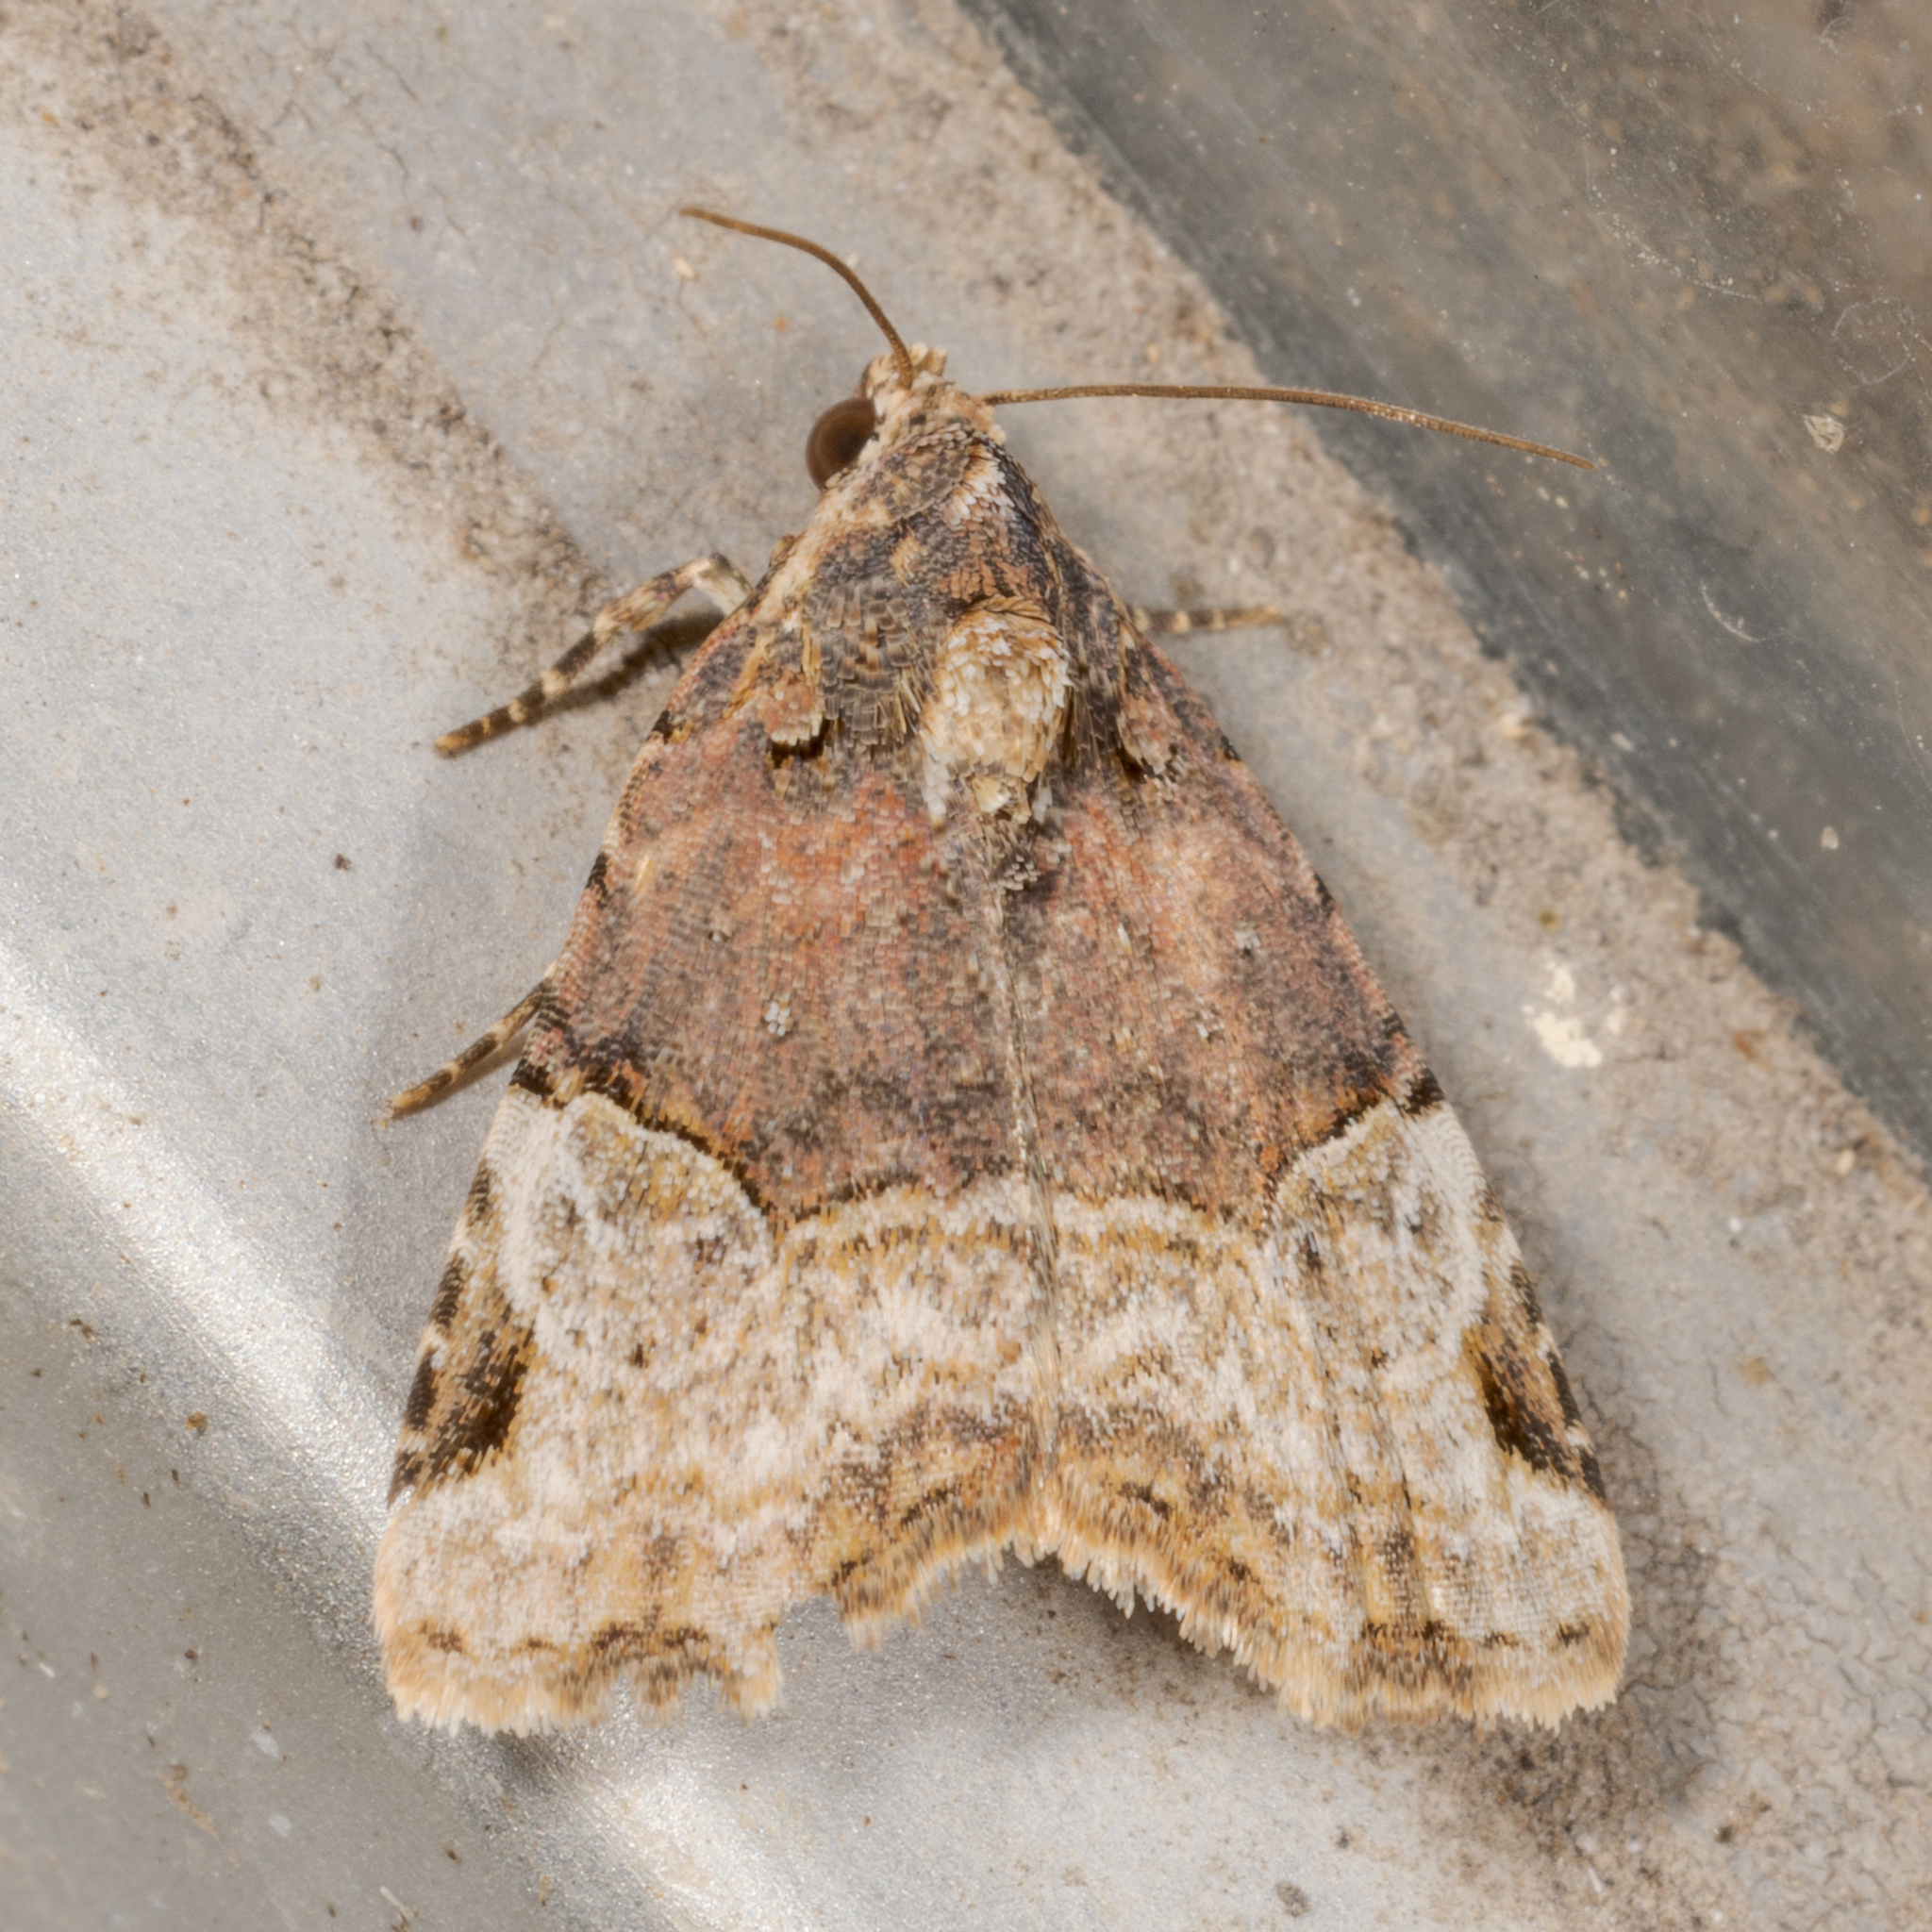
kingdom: Animalia
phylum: Arthropoda
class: Insecta
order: Lepidoptera
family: Noctuidae
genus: Ozarba
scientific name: Ozarba catilina
